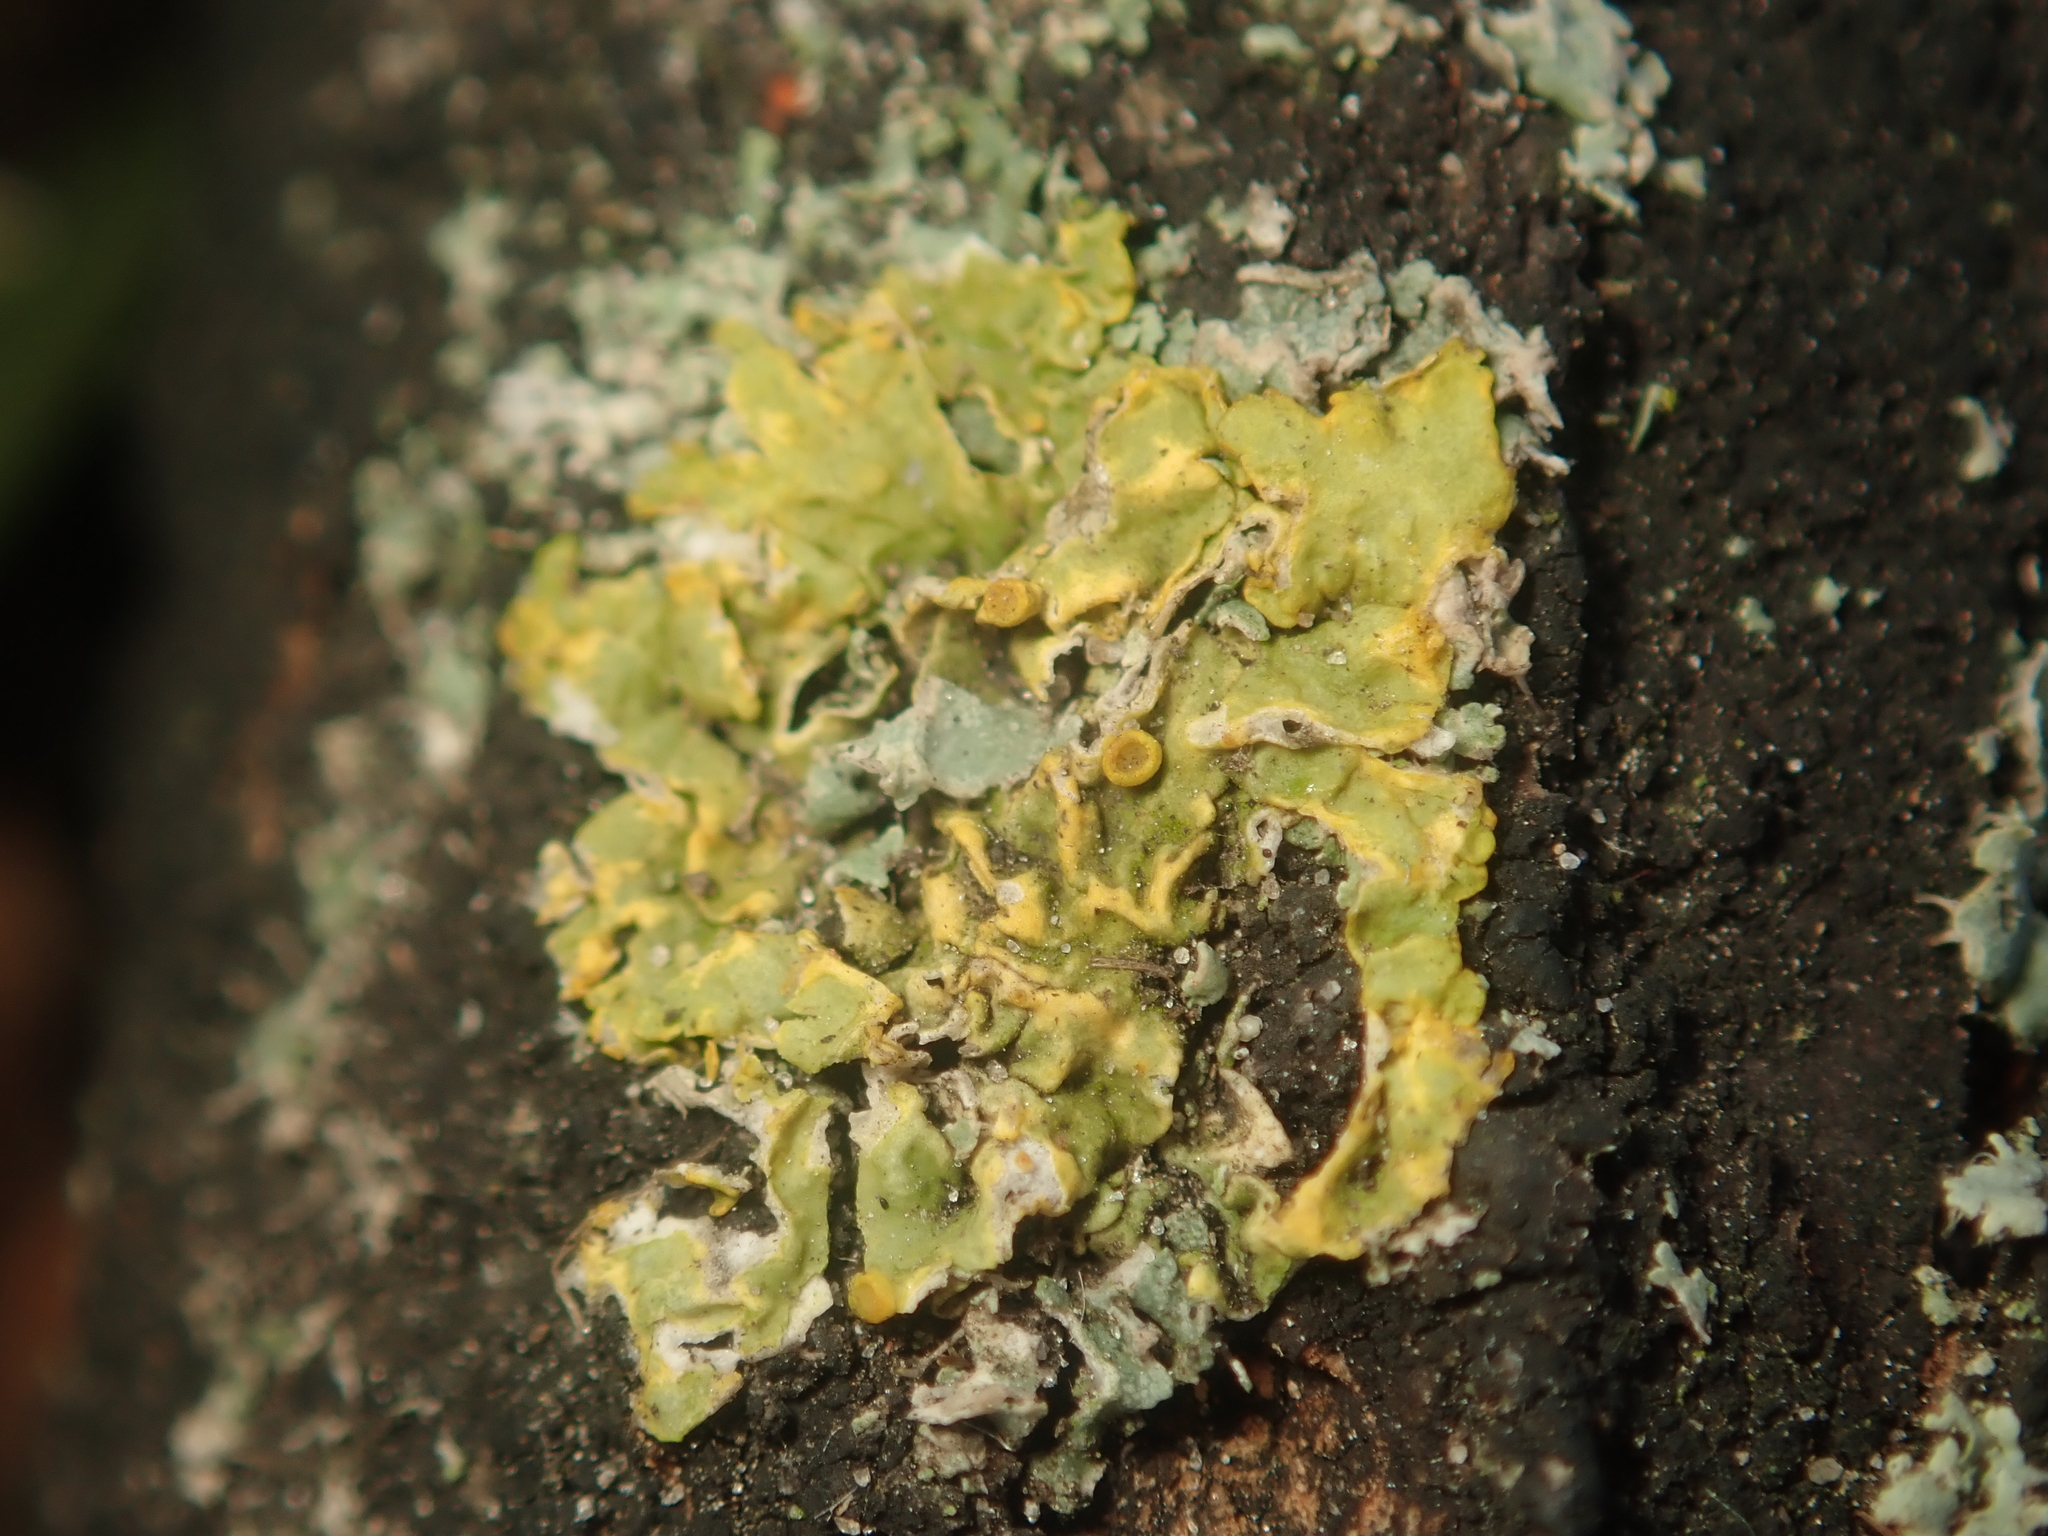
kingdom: Fungi
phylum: Ascomycota
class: Lecanoromycetes
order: Teloschistales
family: Teloschistaceae
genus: Xanthoria
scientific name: Xanthoria parietina
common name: Common orange lichen
